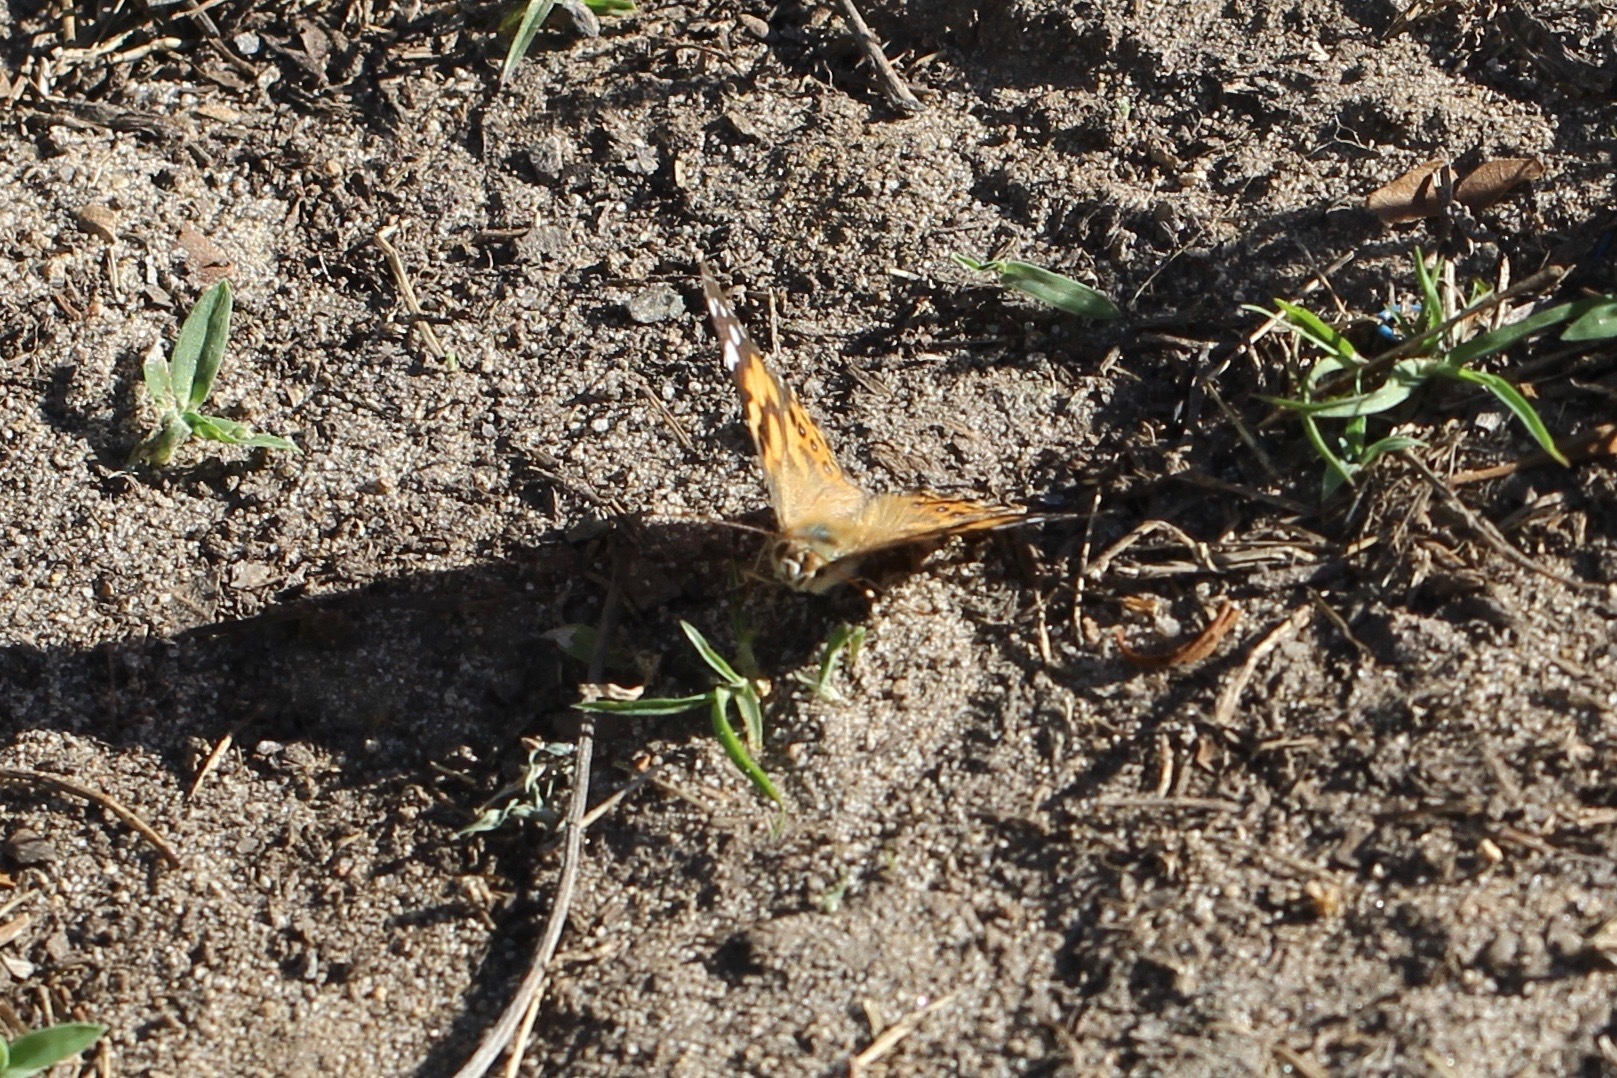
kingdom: Animalia
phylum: Arthropoda
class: Insecta
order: Lepidoptera
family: Nymphalidae
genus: Vanessa
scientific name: Vanessa kershawi
